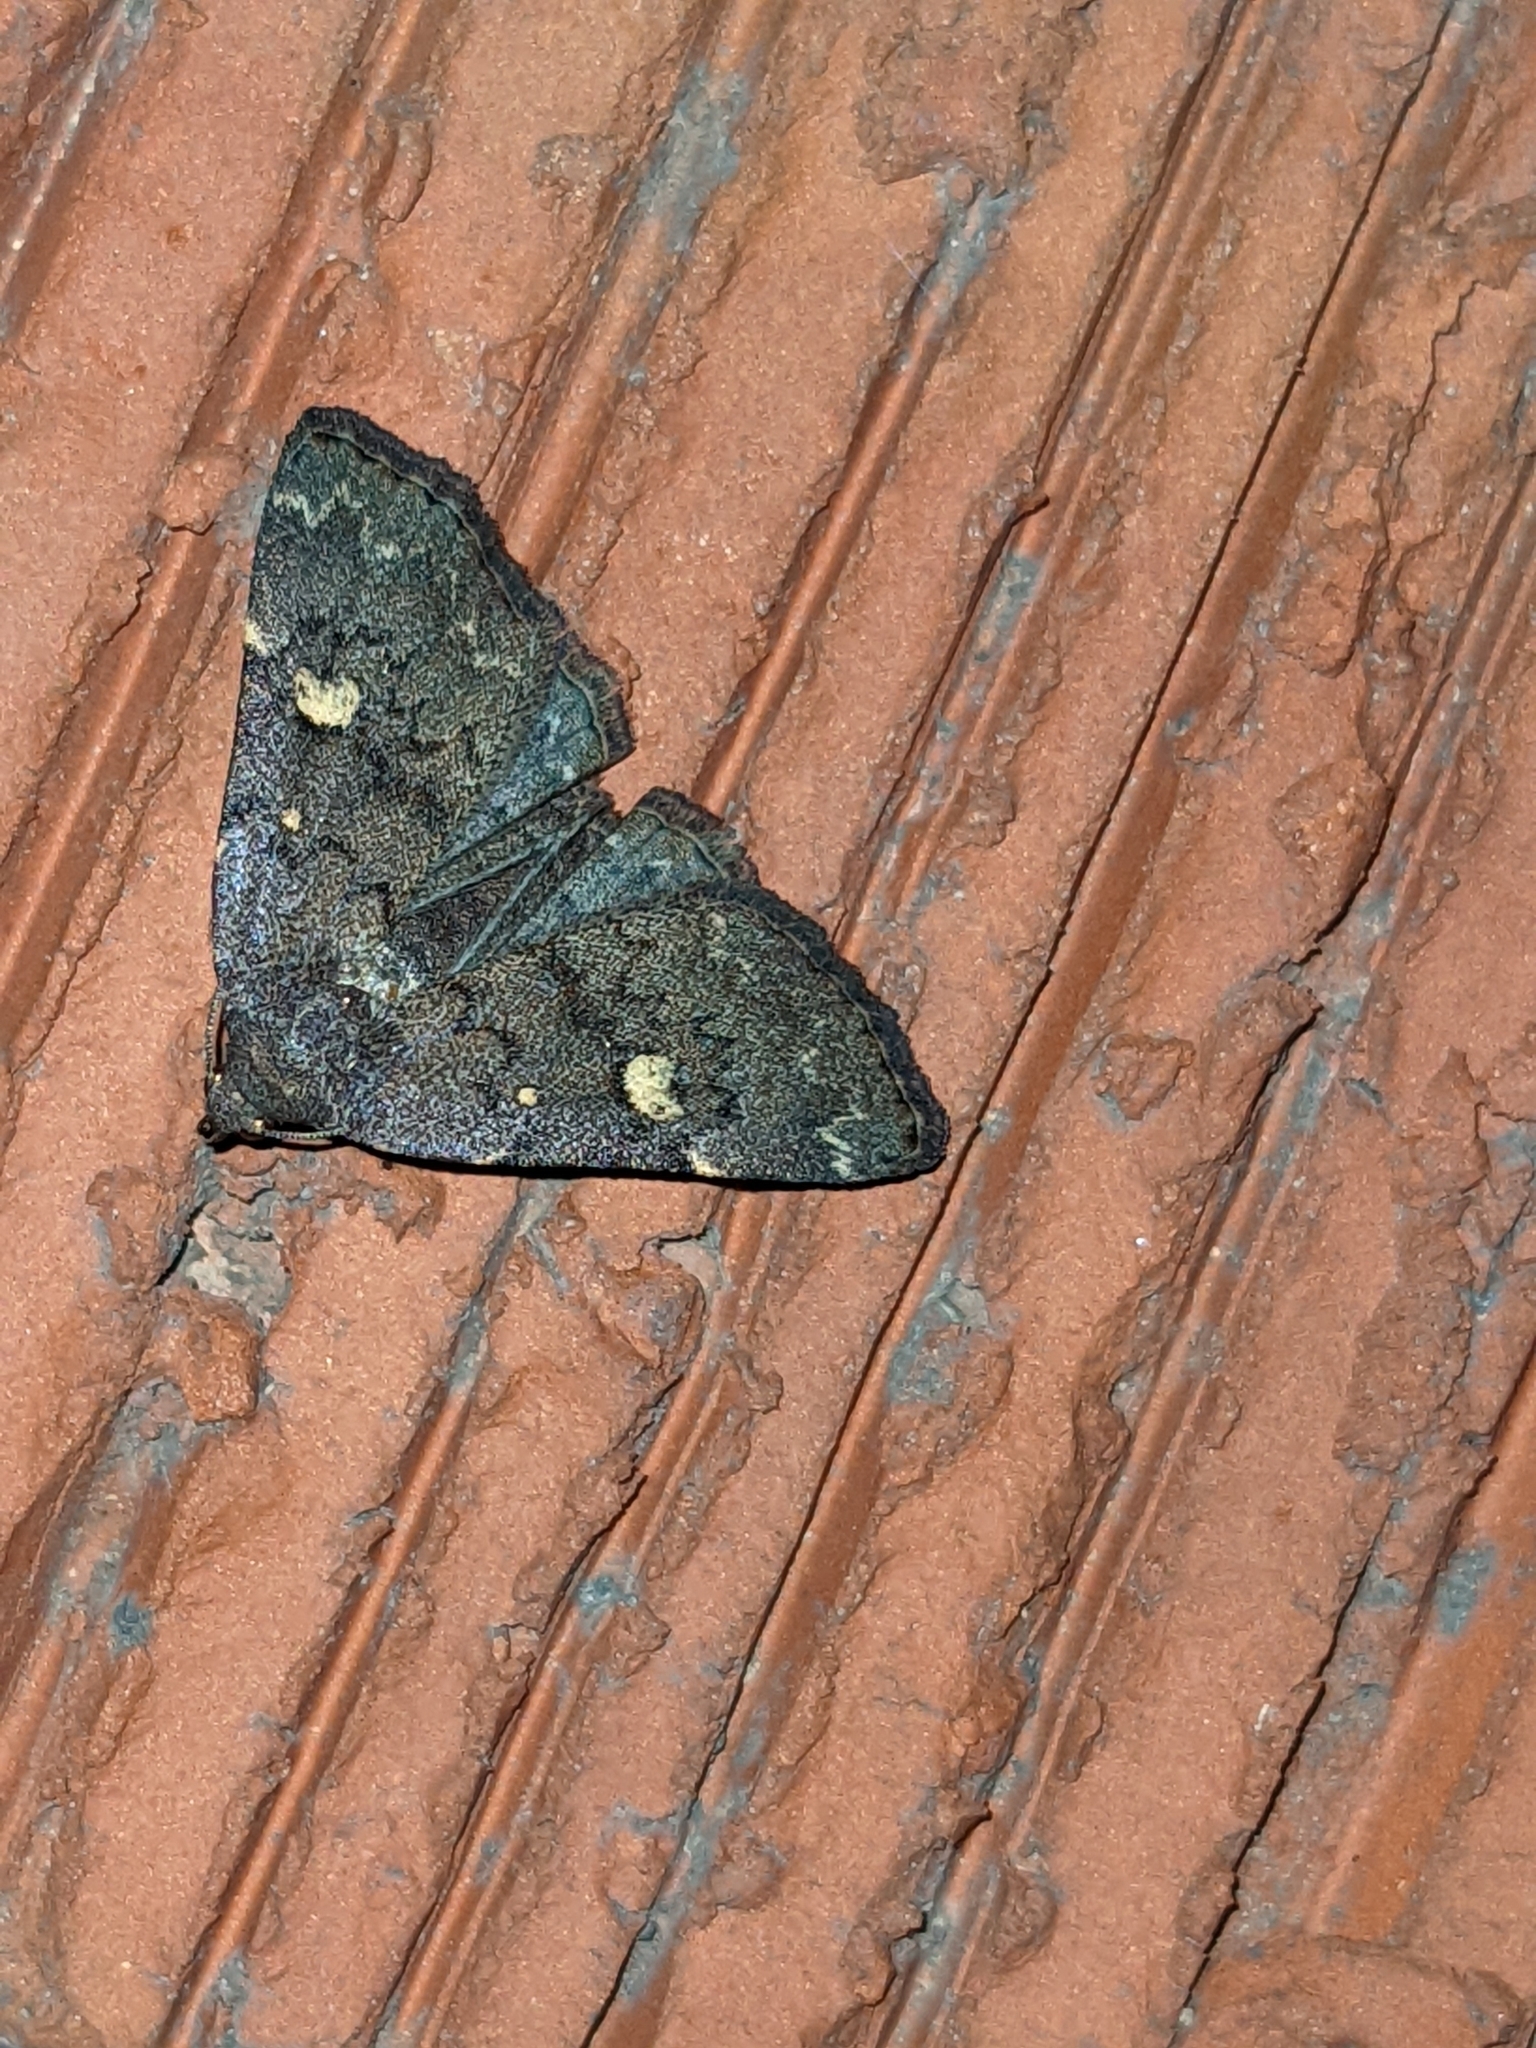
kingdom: Animalia
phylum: Arthropoda
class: Insecta
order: Lepidoptera
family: Erebidae
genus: Idia
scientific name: Idia aemula
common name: Common idia moth
